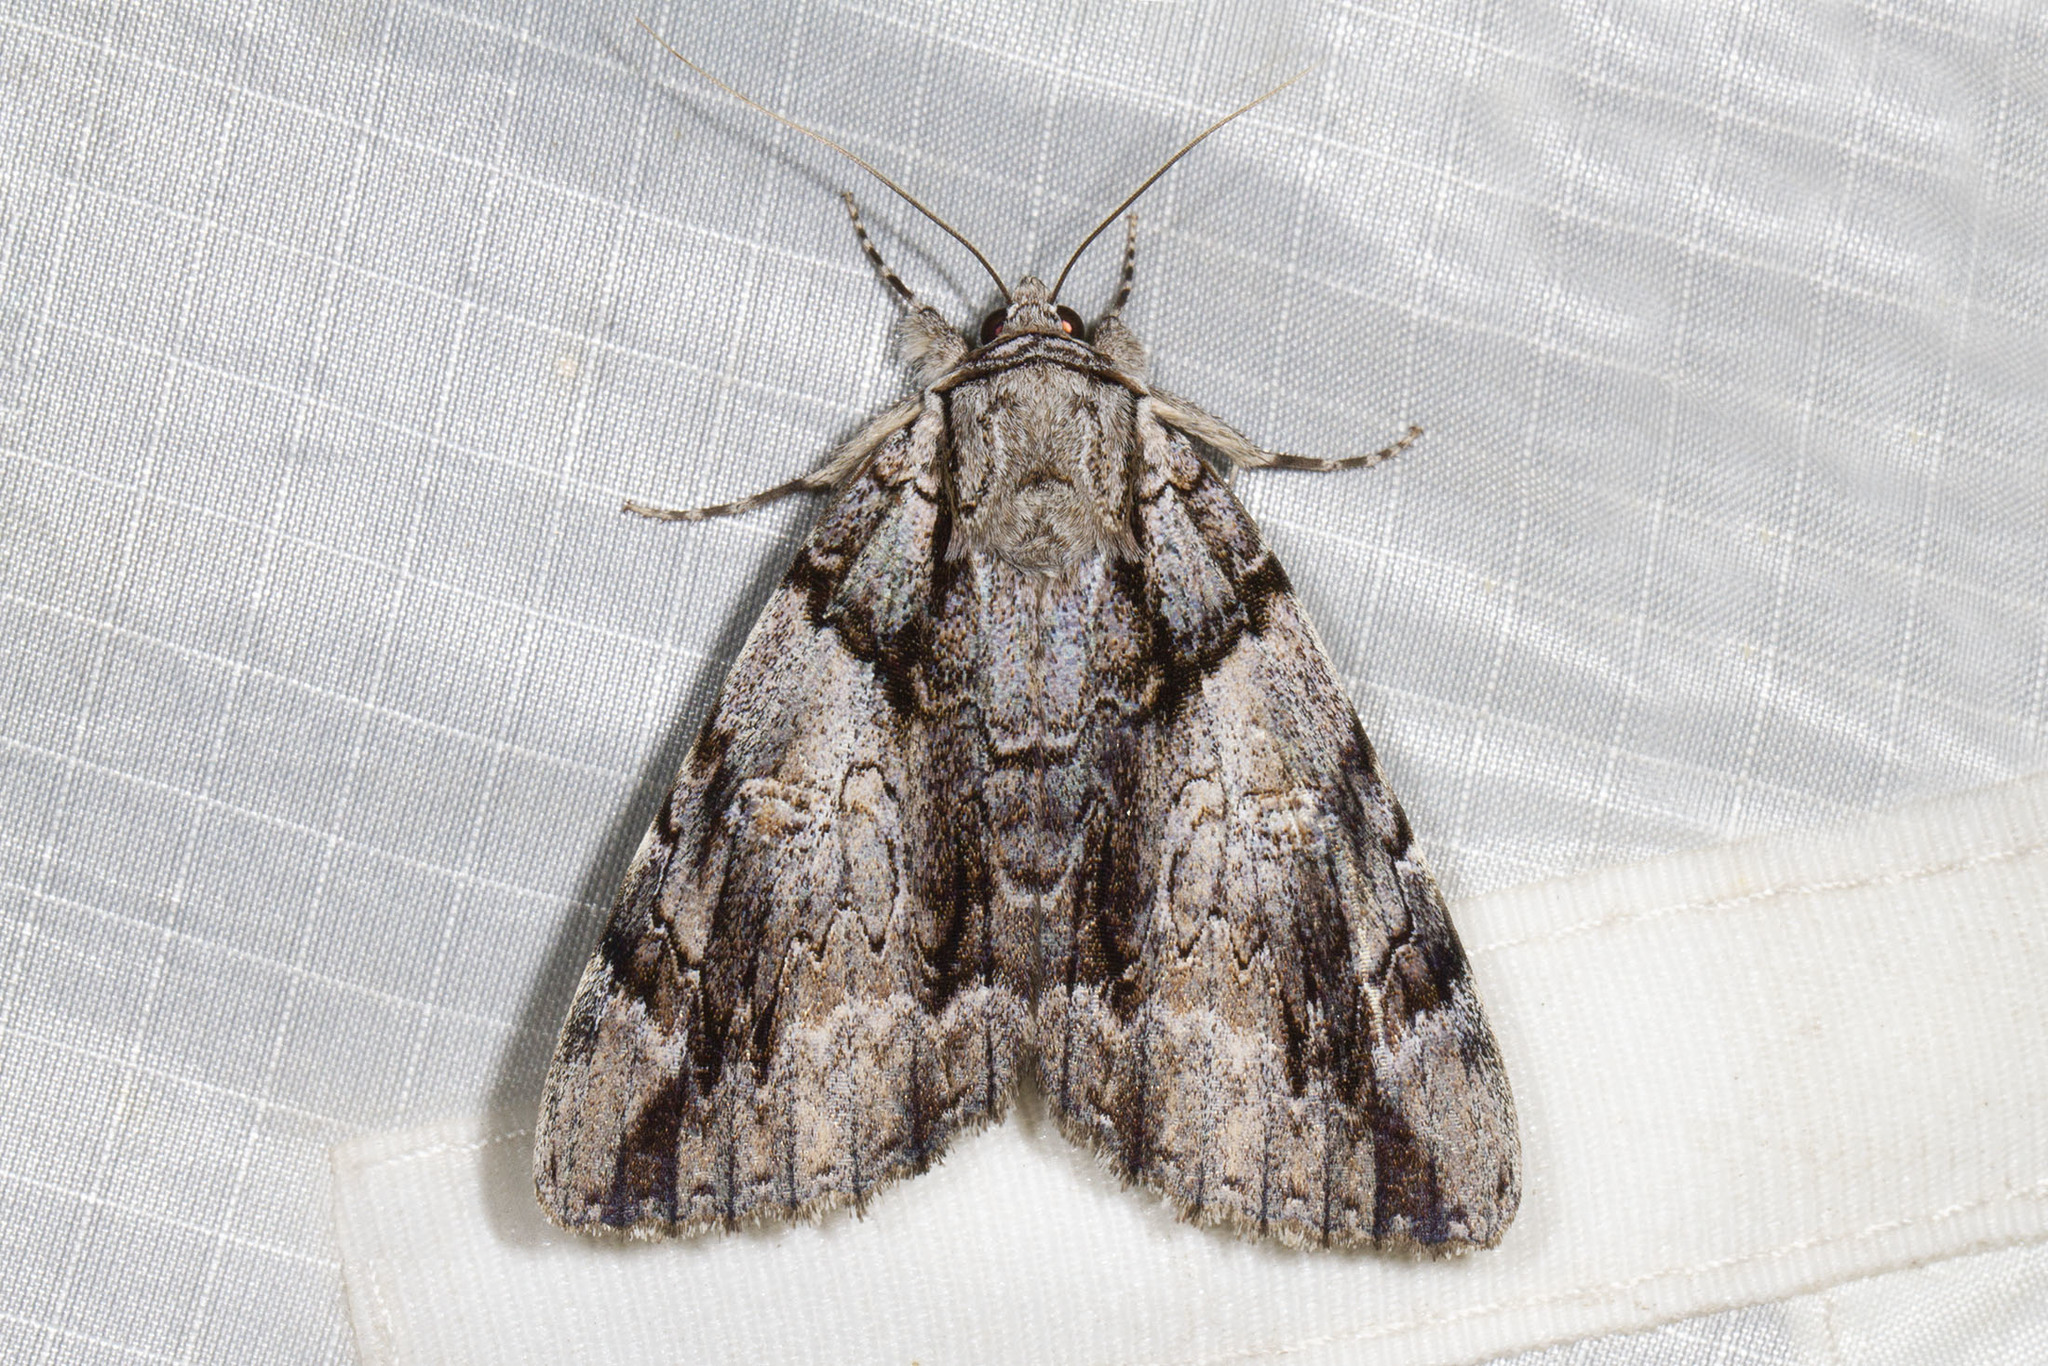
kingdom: Animalia
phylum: Arthropoda
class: Insecta
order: Lepidoptera
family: Erebidae
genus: Catocala
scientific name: Catocala vidua
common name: The widow
